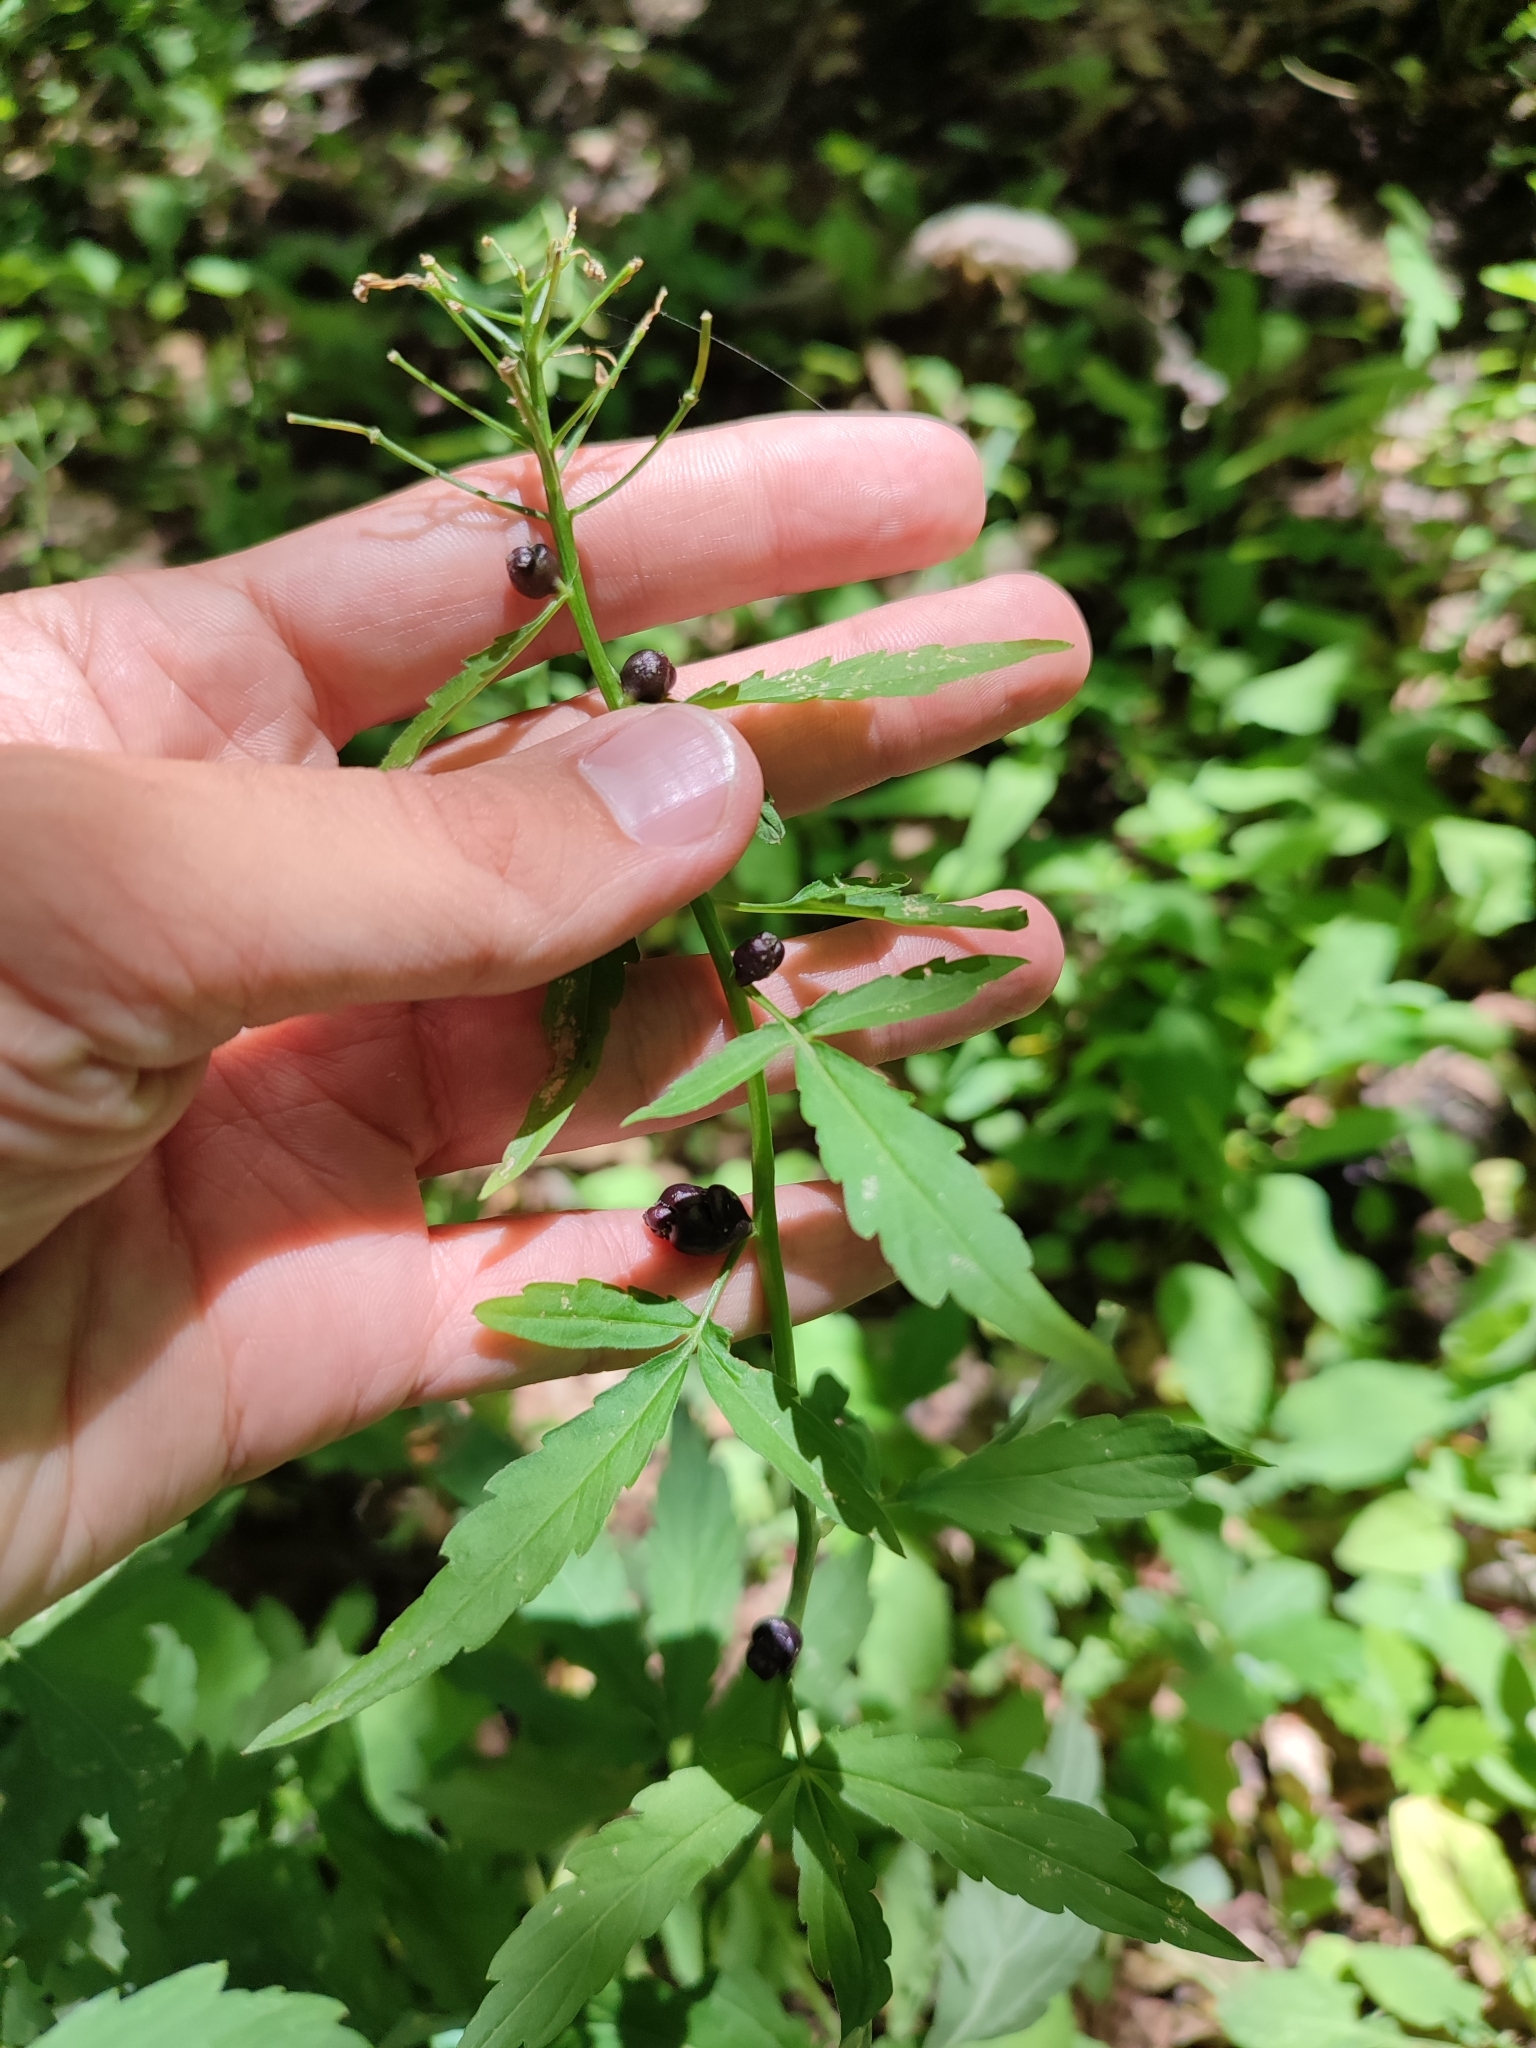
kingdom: Plantae
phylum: Tracheophyta
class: Magnoliopsida
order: Brassicales
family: Brassicaceae
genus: Cardamine
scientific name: Cardamine bulbifera
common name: Coralroot bittercress
